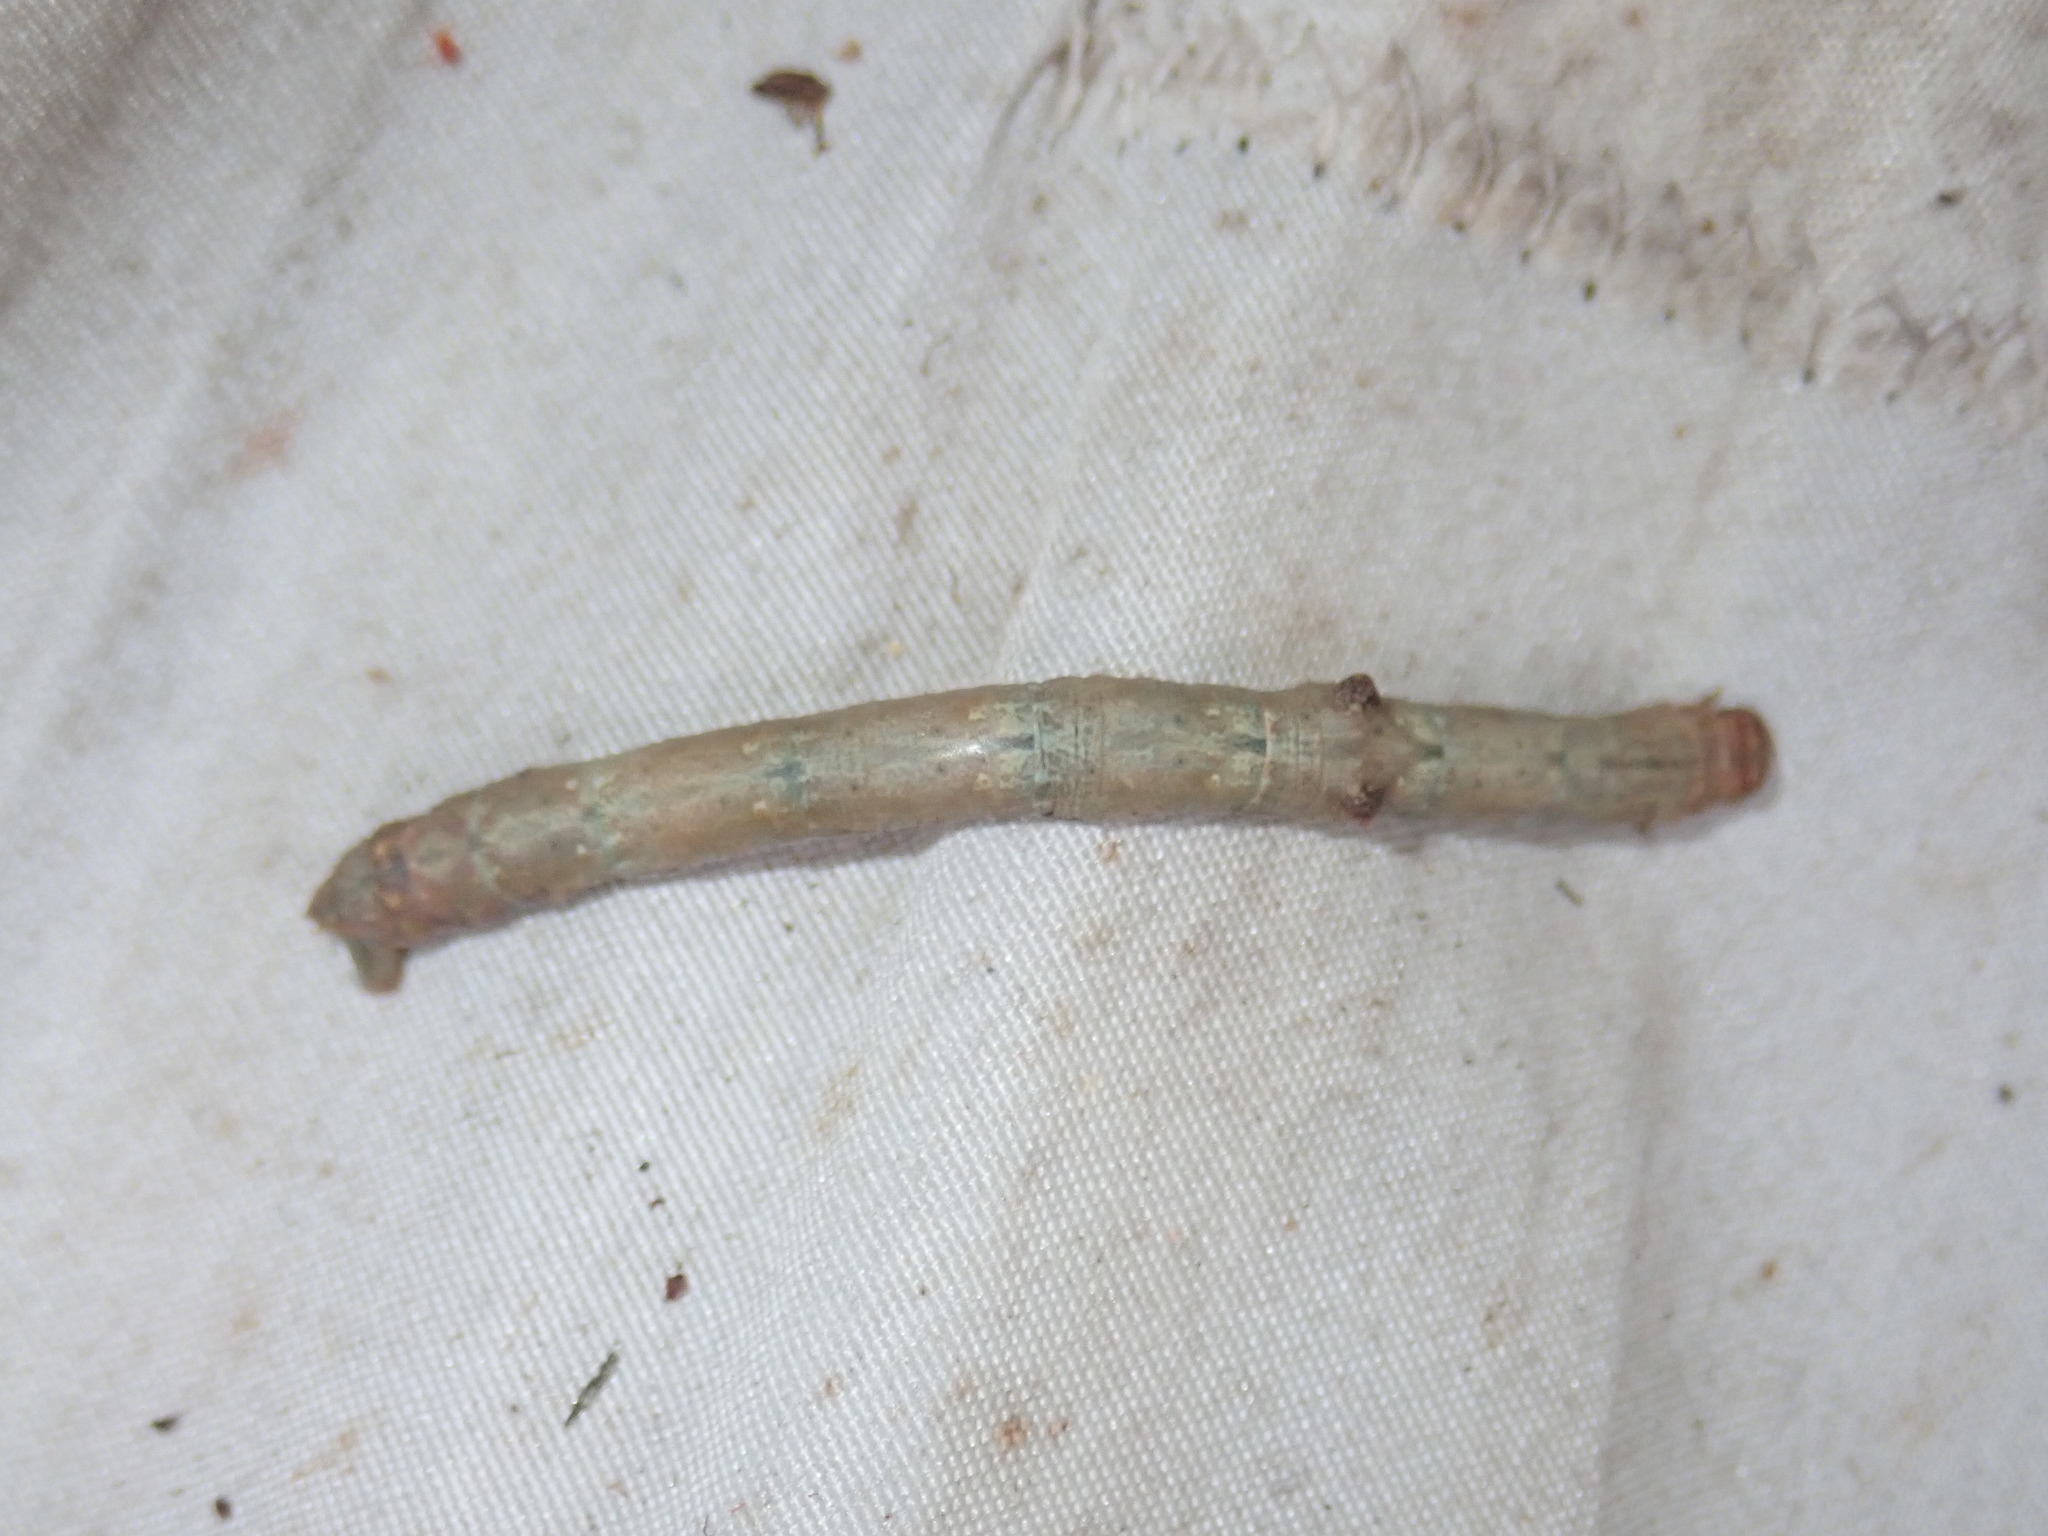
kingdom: Animalia
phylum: Arthropoda
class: Insecta
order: Lepidoptera
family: Geometridae
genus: Hypomecis
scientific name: Hypomecis punctinalis
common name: Pale oak beauty
